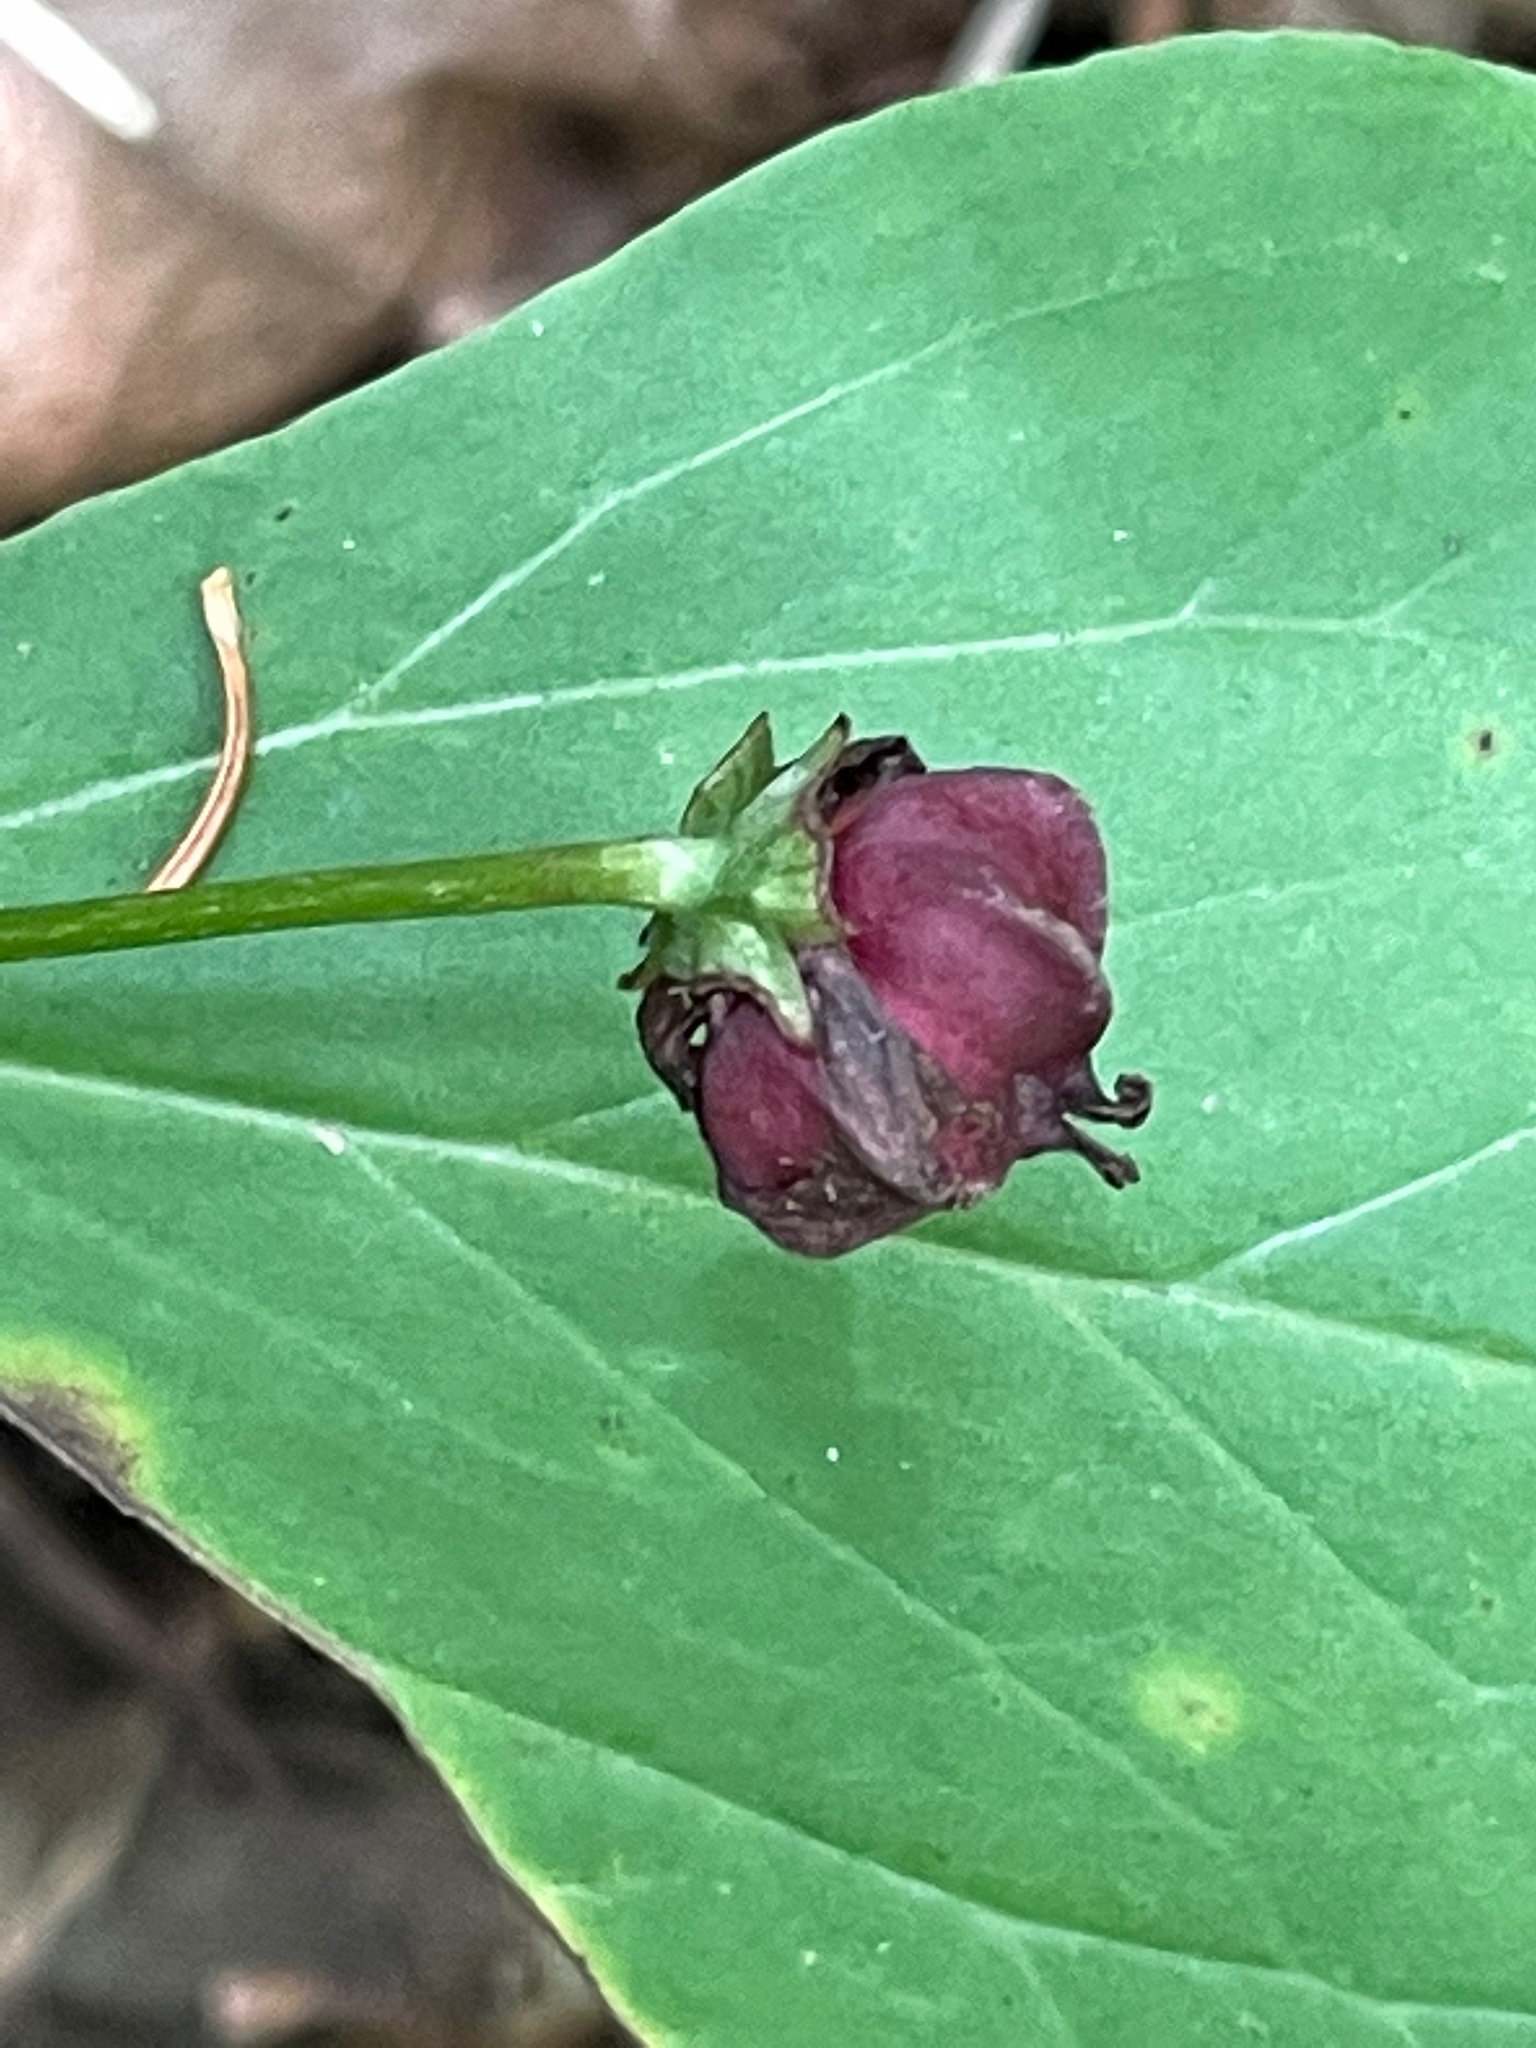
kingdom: Plantae
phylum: Tracheophyta
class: Liliopsida
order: Liliales
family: Melanthiaceae
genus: Trillium
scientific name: Trillium erectum
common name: Purple trillium
